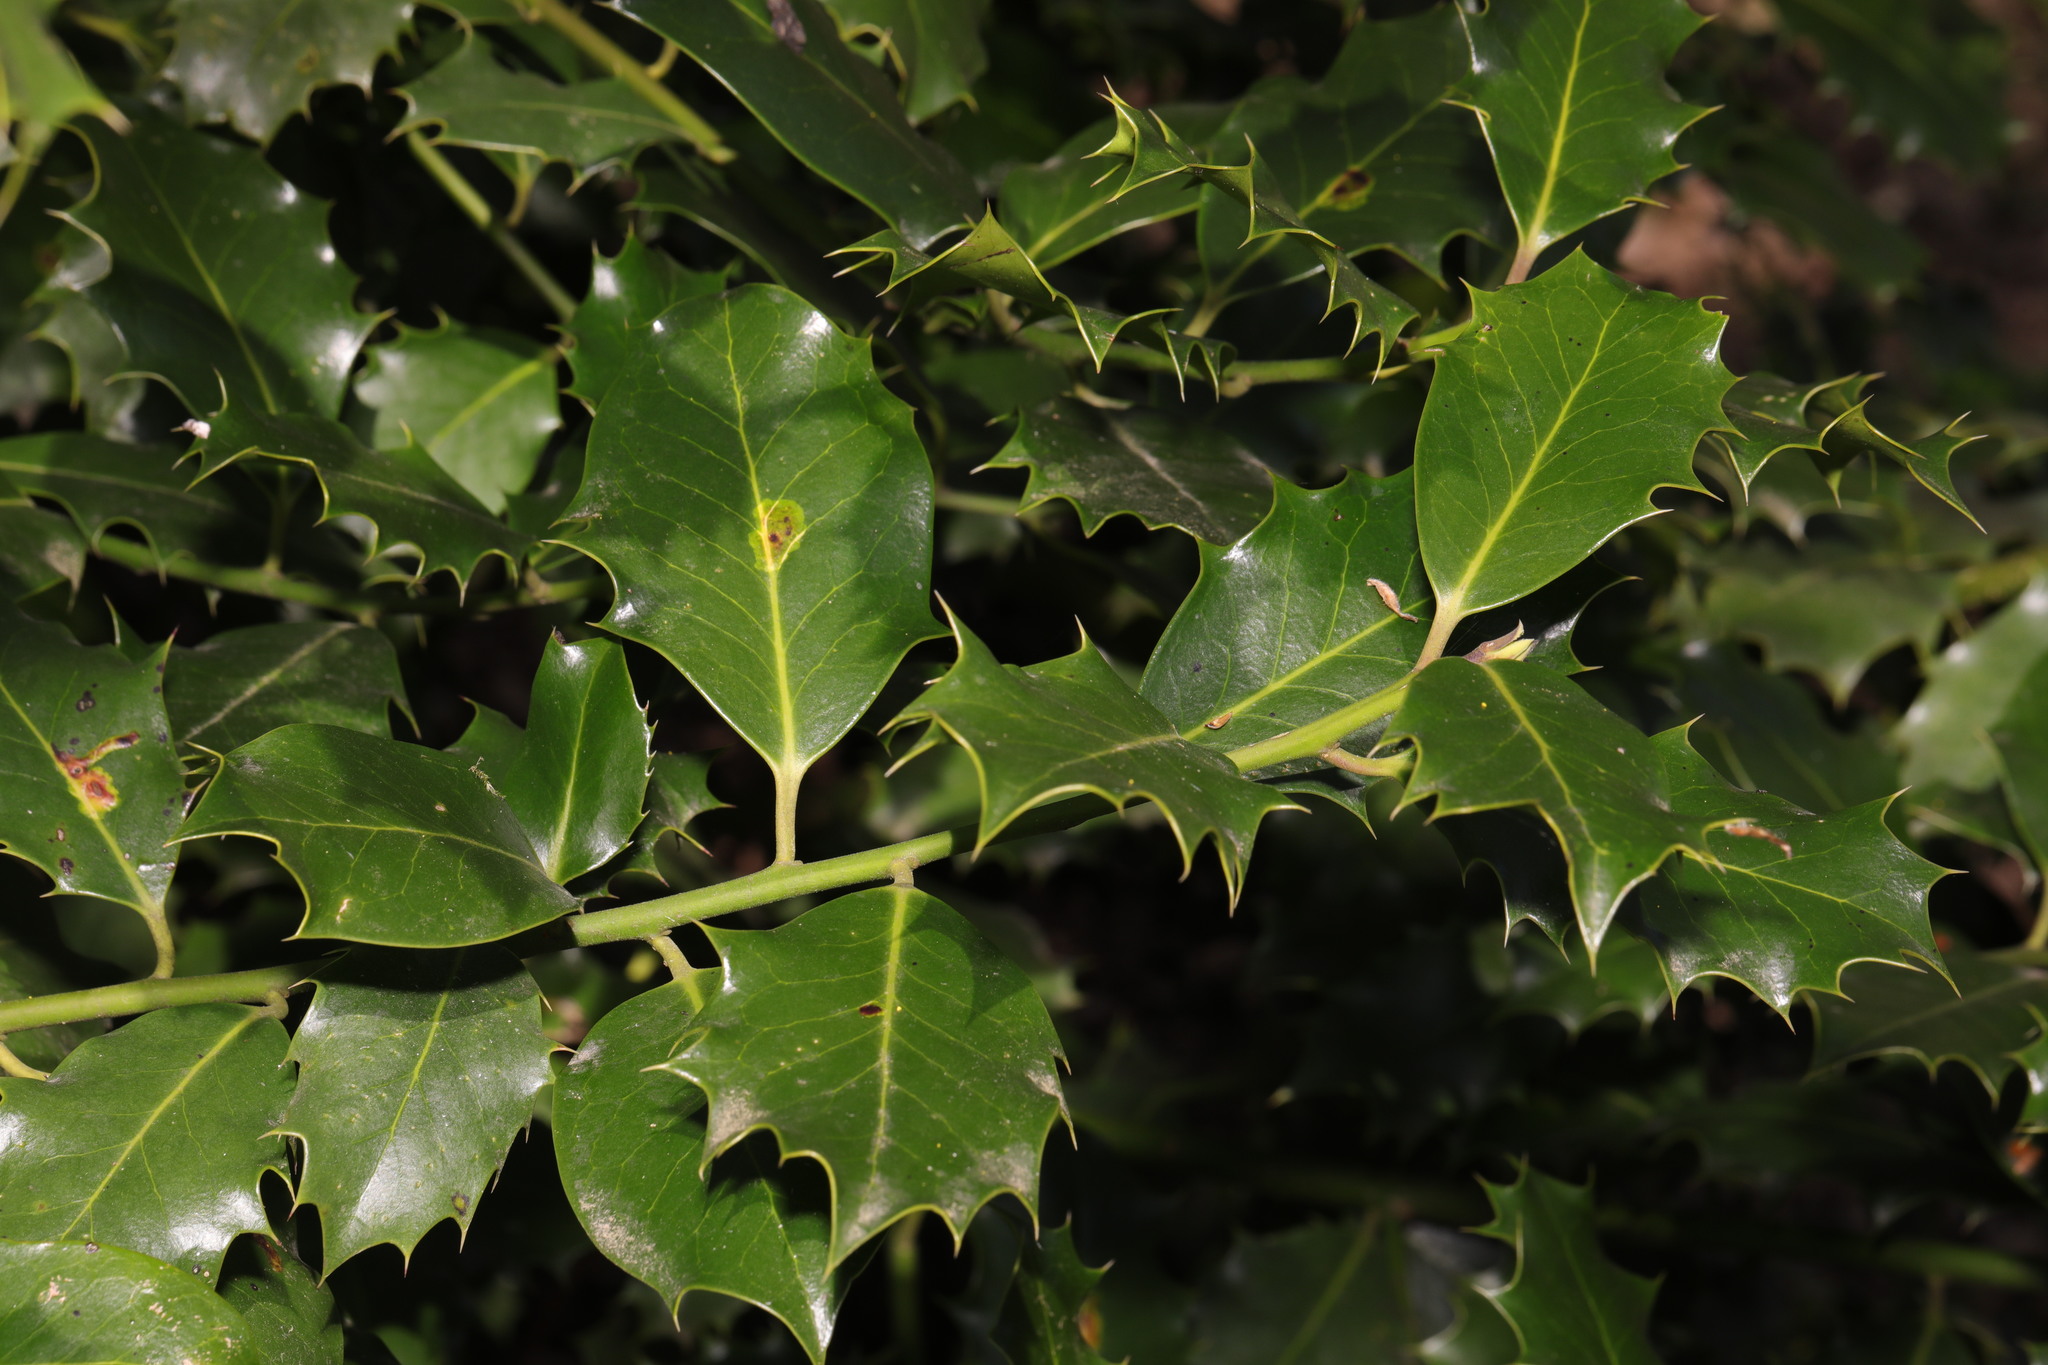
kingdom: Plantae
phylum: Tracheophyta
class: Magnoliopsida
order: Aquifoliales
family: Aquifoliaceae
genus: Ilex
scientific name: Ilex aquifolium
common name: English holly
